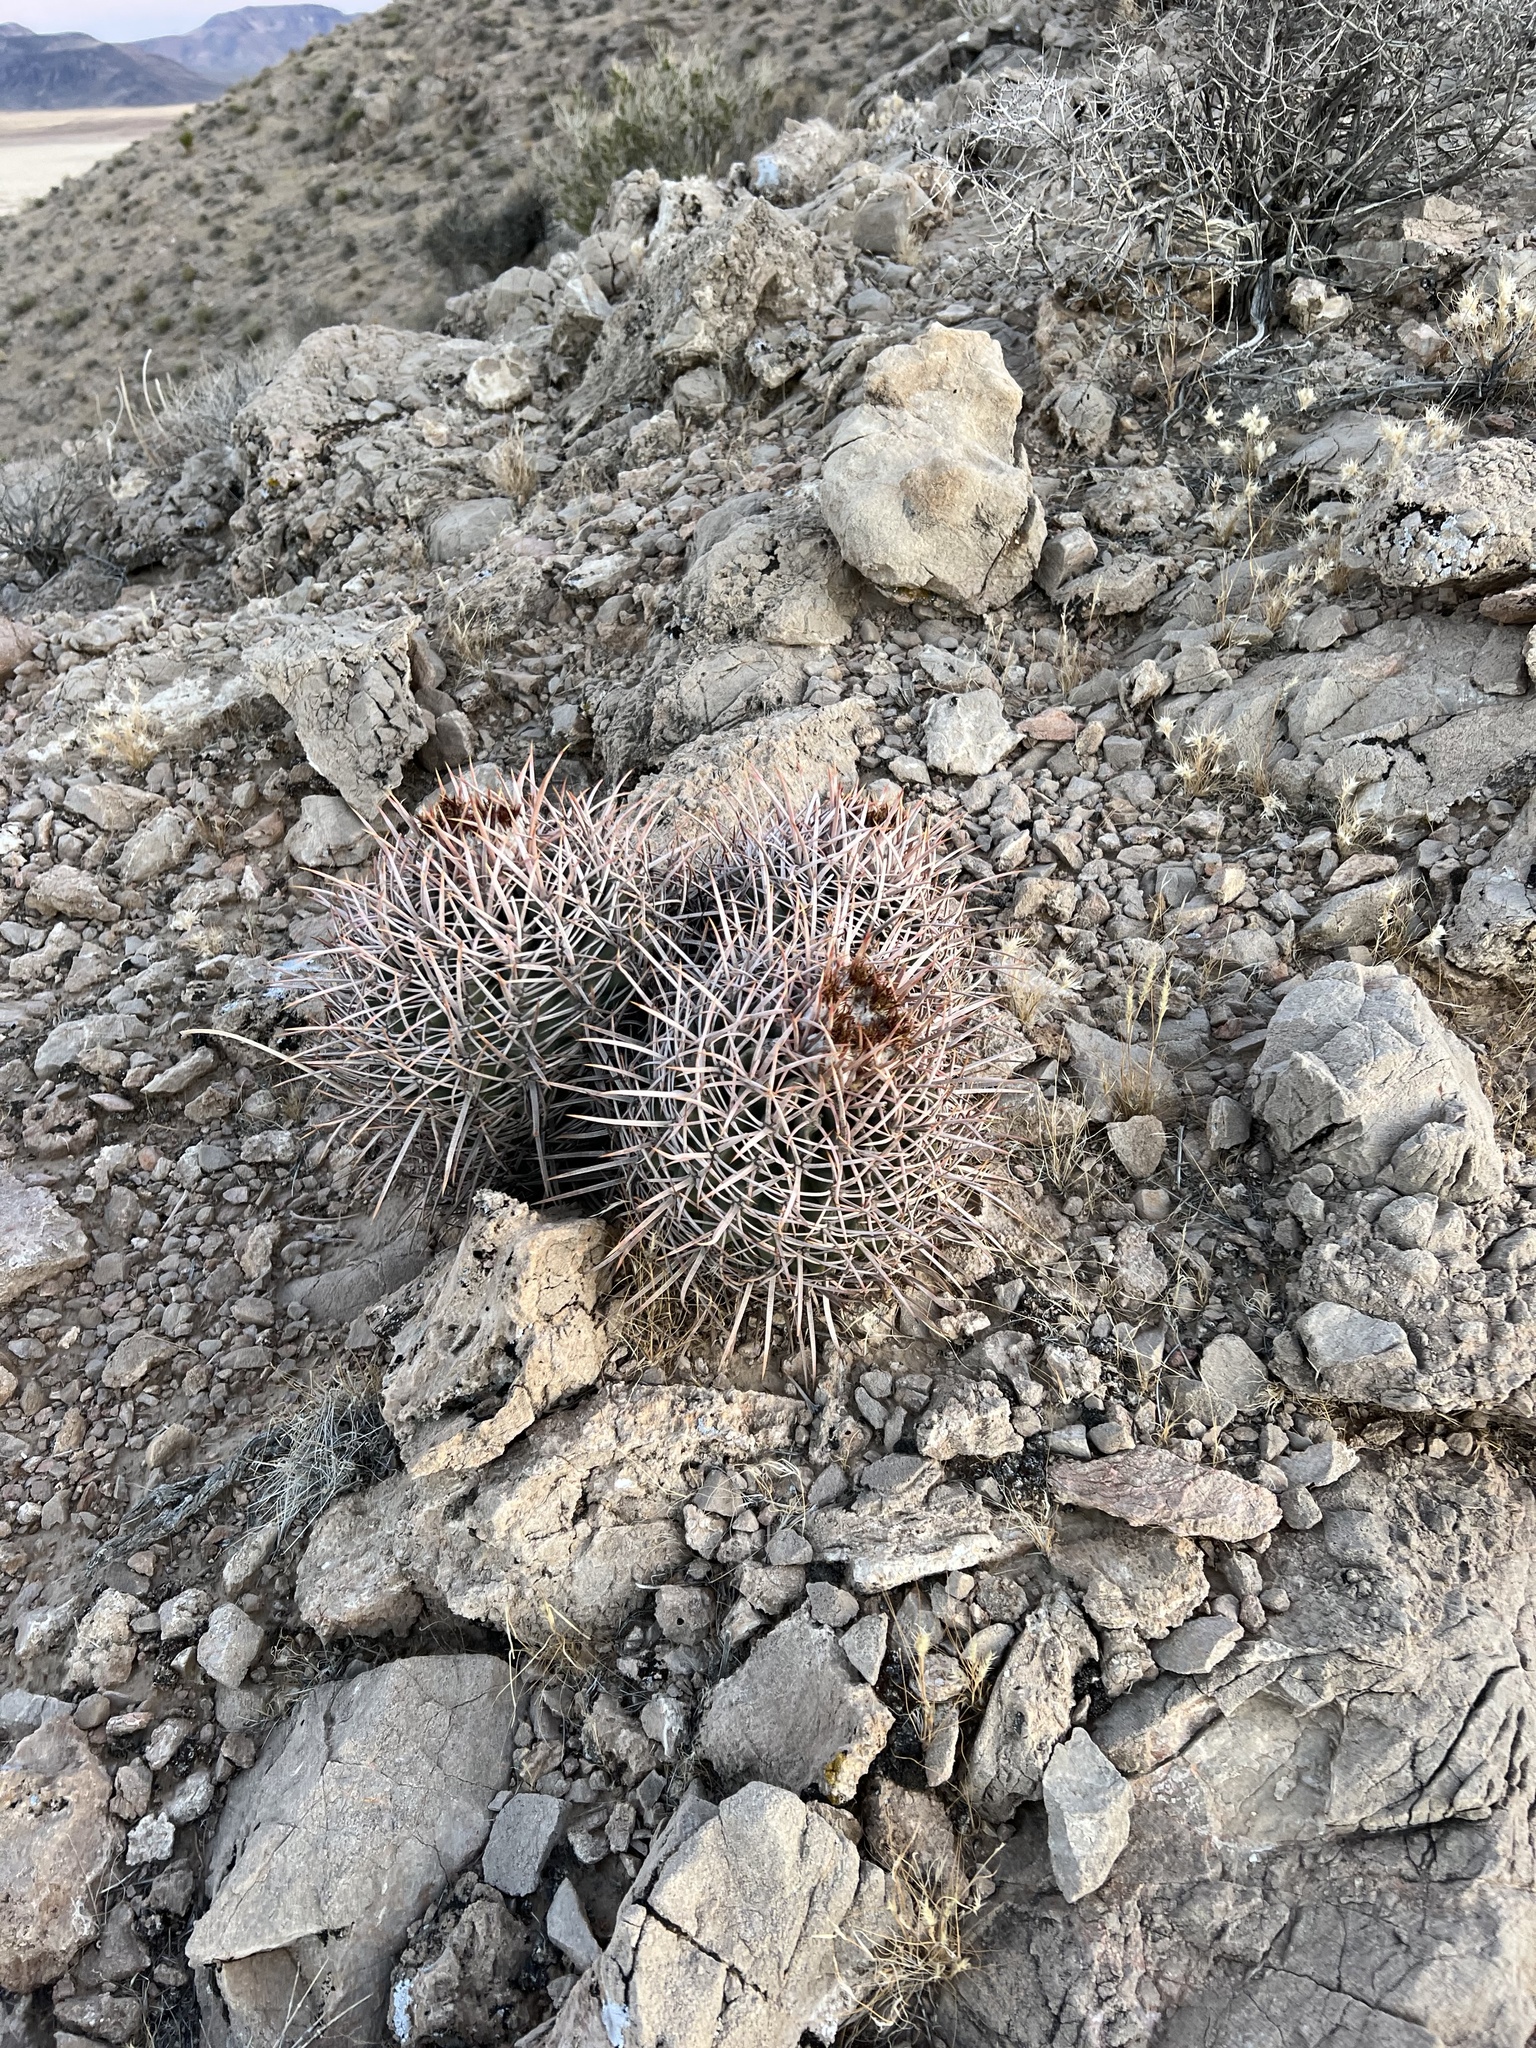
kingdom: Plantae
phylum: Tracheophyta
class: Magnoliopsida
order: Caryophyllales
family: Cactaceae
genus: Echinocactus
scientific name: Echinocactus polycephalus
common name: Cottontop cactus
